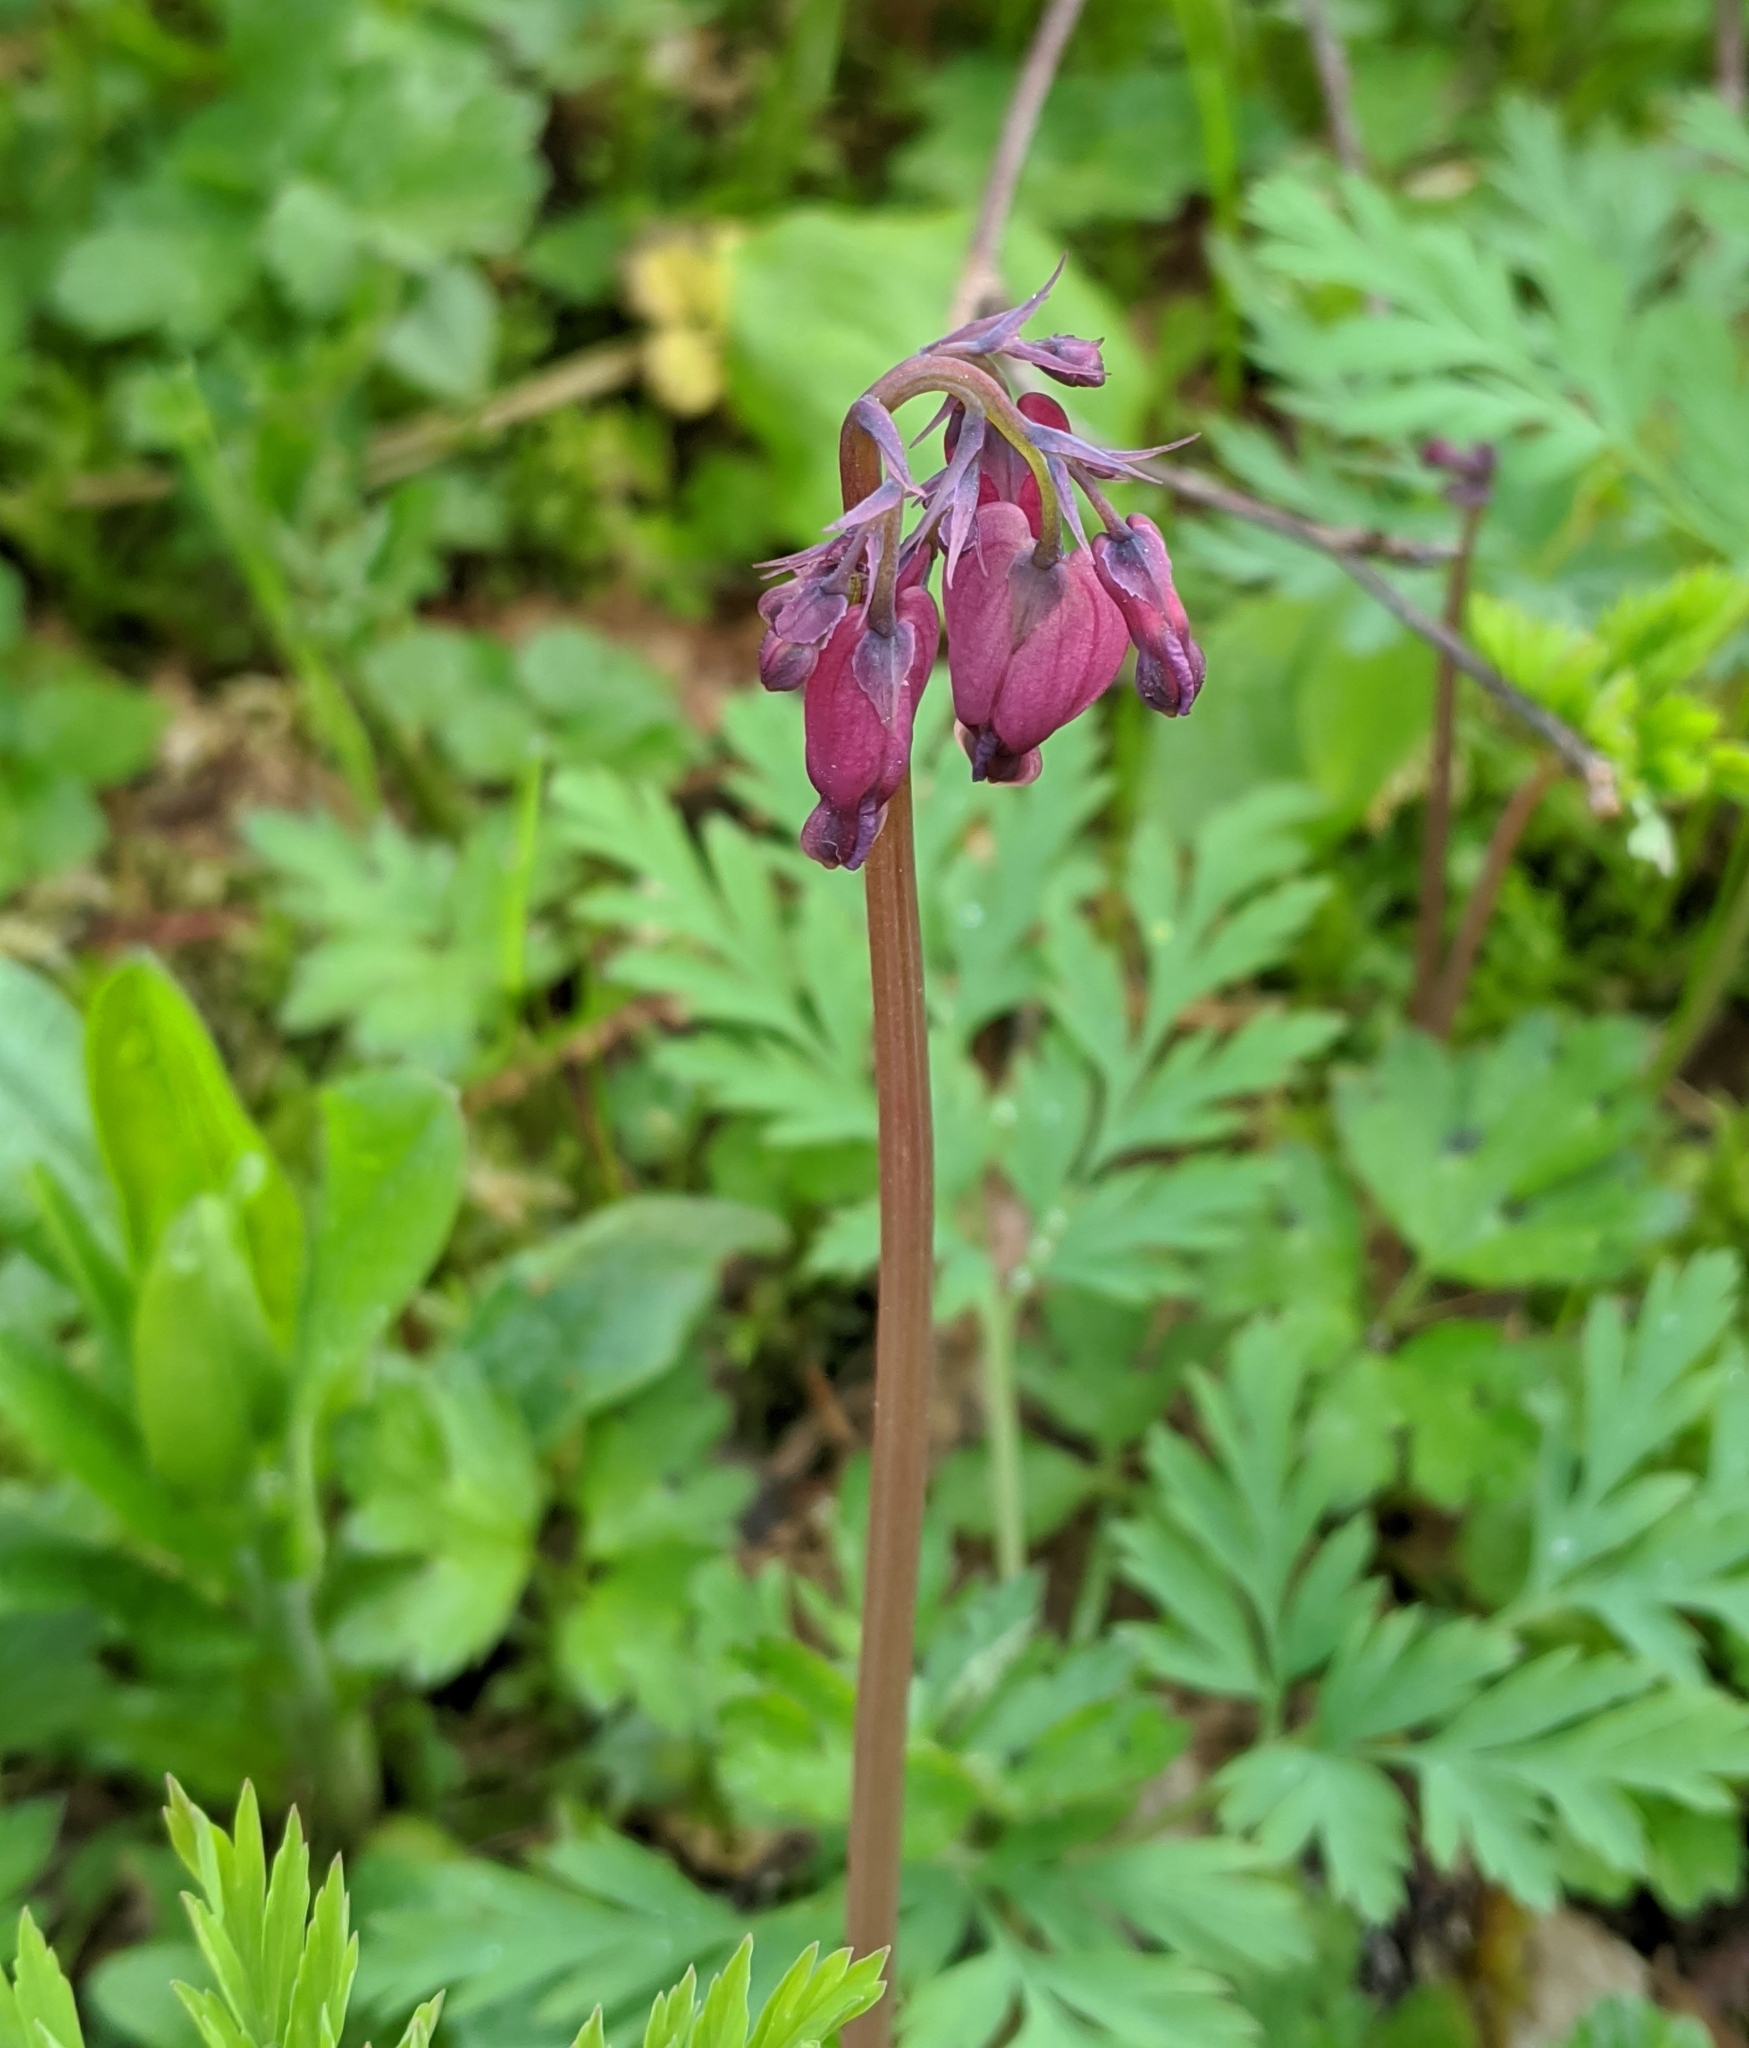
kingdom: Plantae
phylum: Tracheophyta
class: Magnoliopsida
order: Ranunculales
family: Papaveraceae
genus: Dicentra
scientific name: Dicentra formosa
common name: Bleeding-heart
